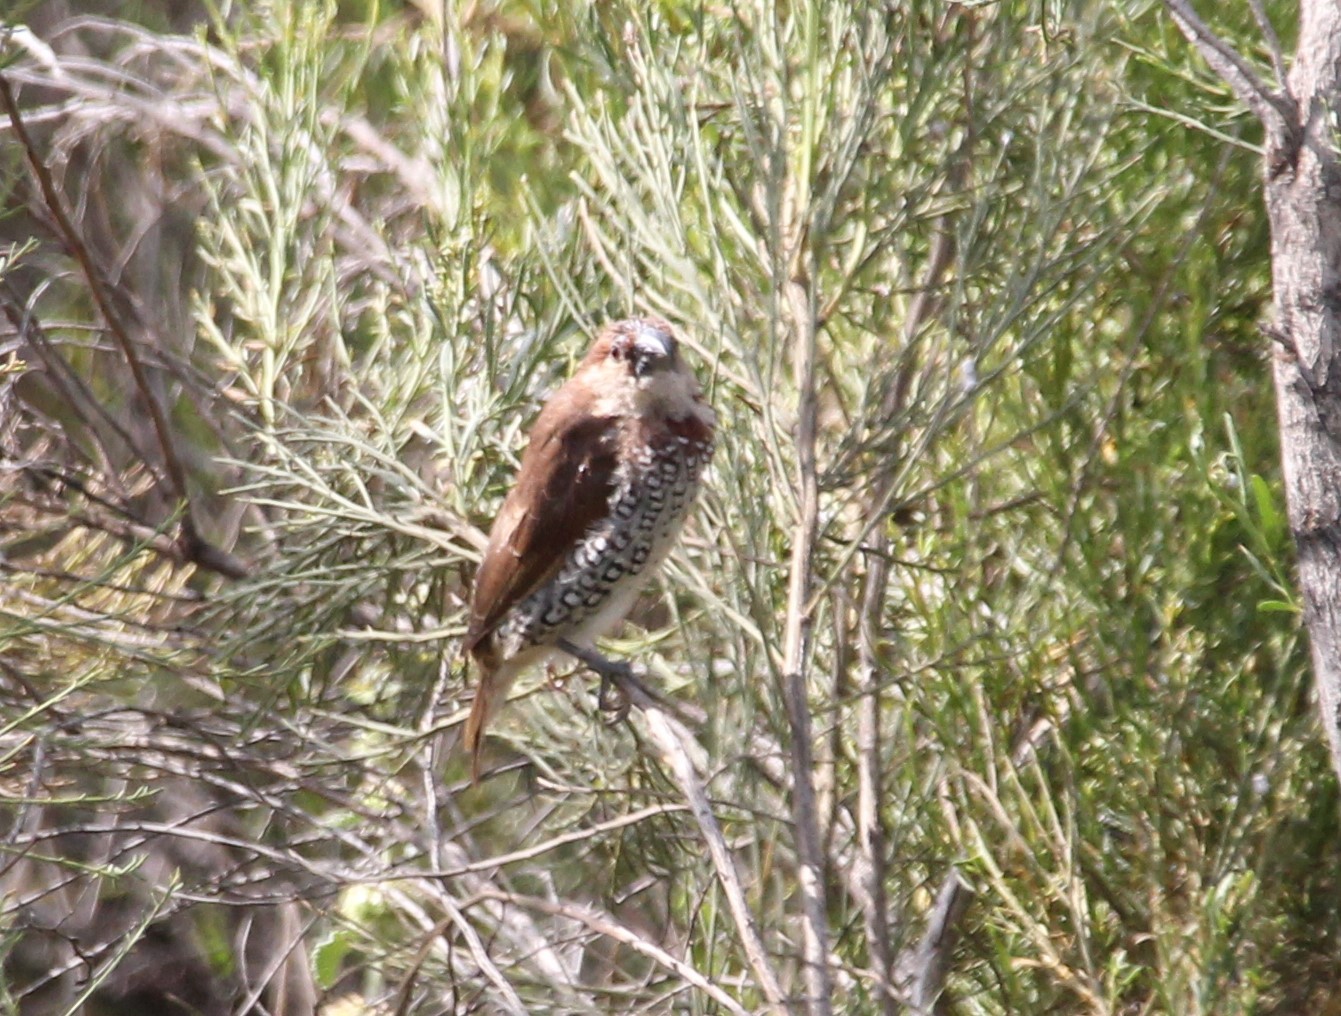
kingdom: Animalia
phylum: Chordata
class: Aves
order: Passeriformes
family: Estrildidae
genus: Lonchura
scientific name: Lonchura punctulata
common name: Scaly-breasted munia
